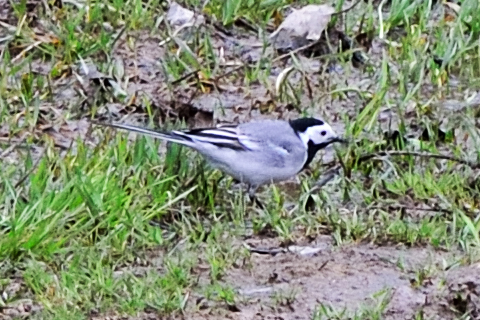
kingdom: Animalia
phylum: Chordata
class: Aves
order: Passeriformes
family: Motacillidae
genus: Motacilla
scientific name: Motacilla alba
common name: White wagtail
